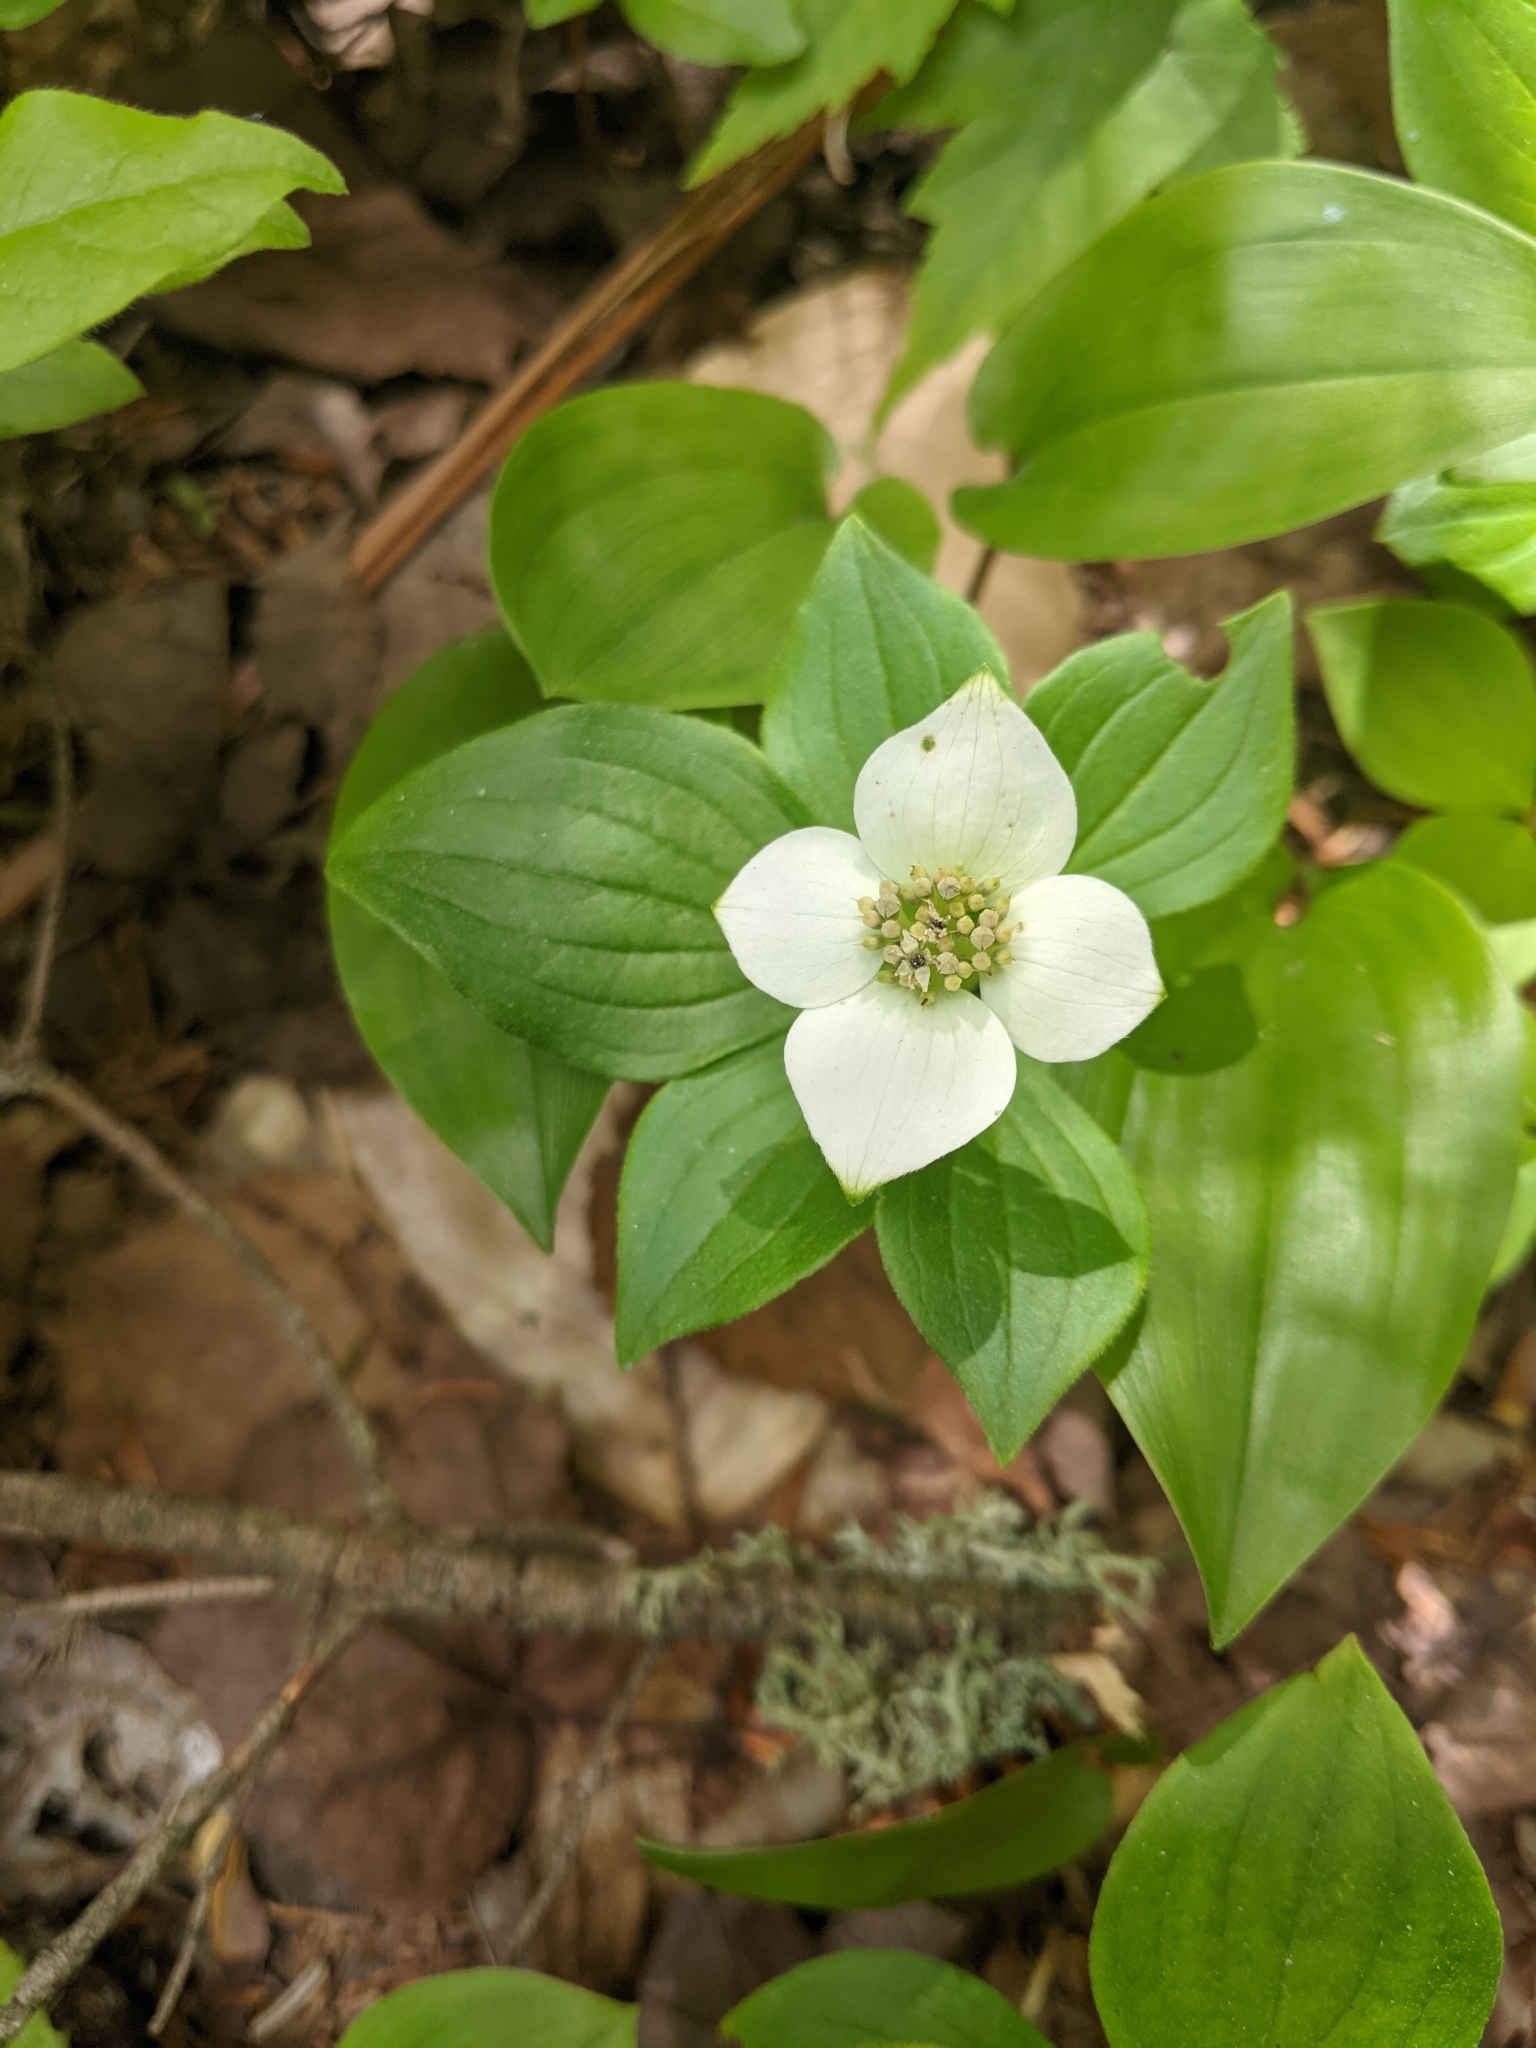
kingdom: Plantae
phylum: Tracheophyta
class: Magnoliopsida
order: Cornales
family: Cornaceae
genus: Cornus
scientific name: Cornus canadensis
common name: Creeping dogwood
